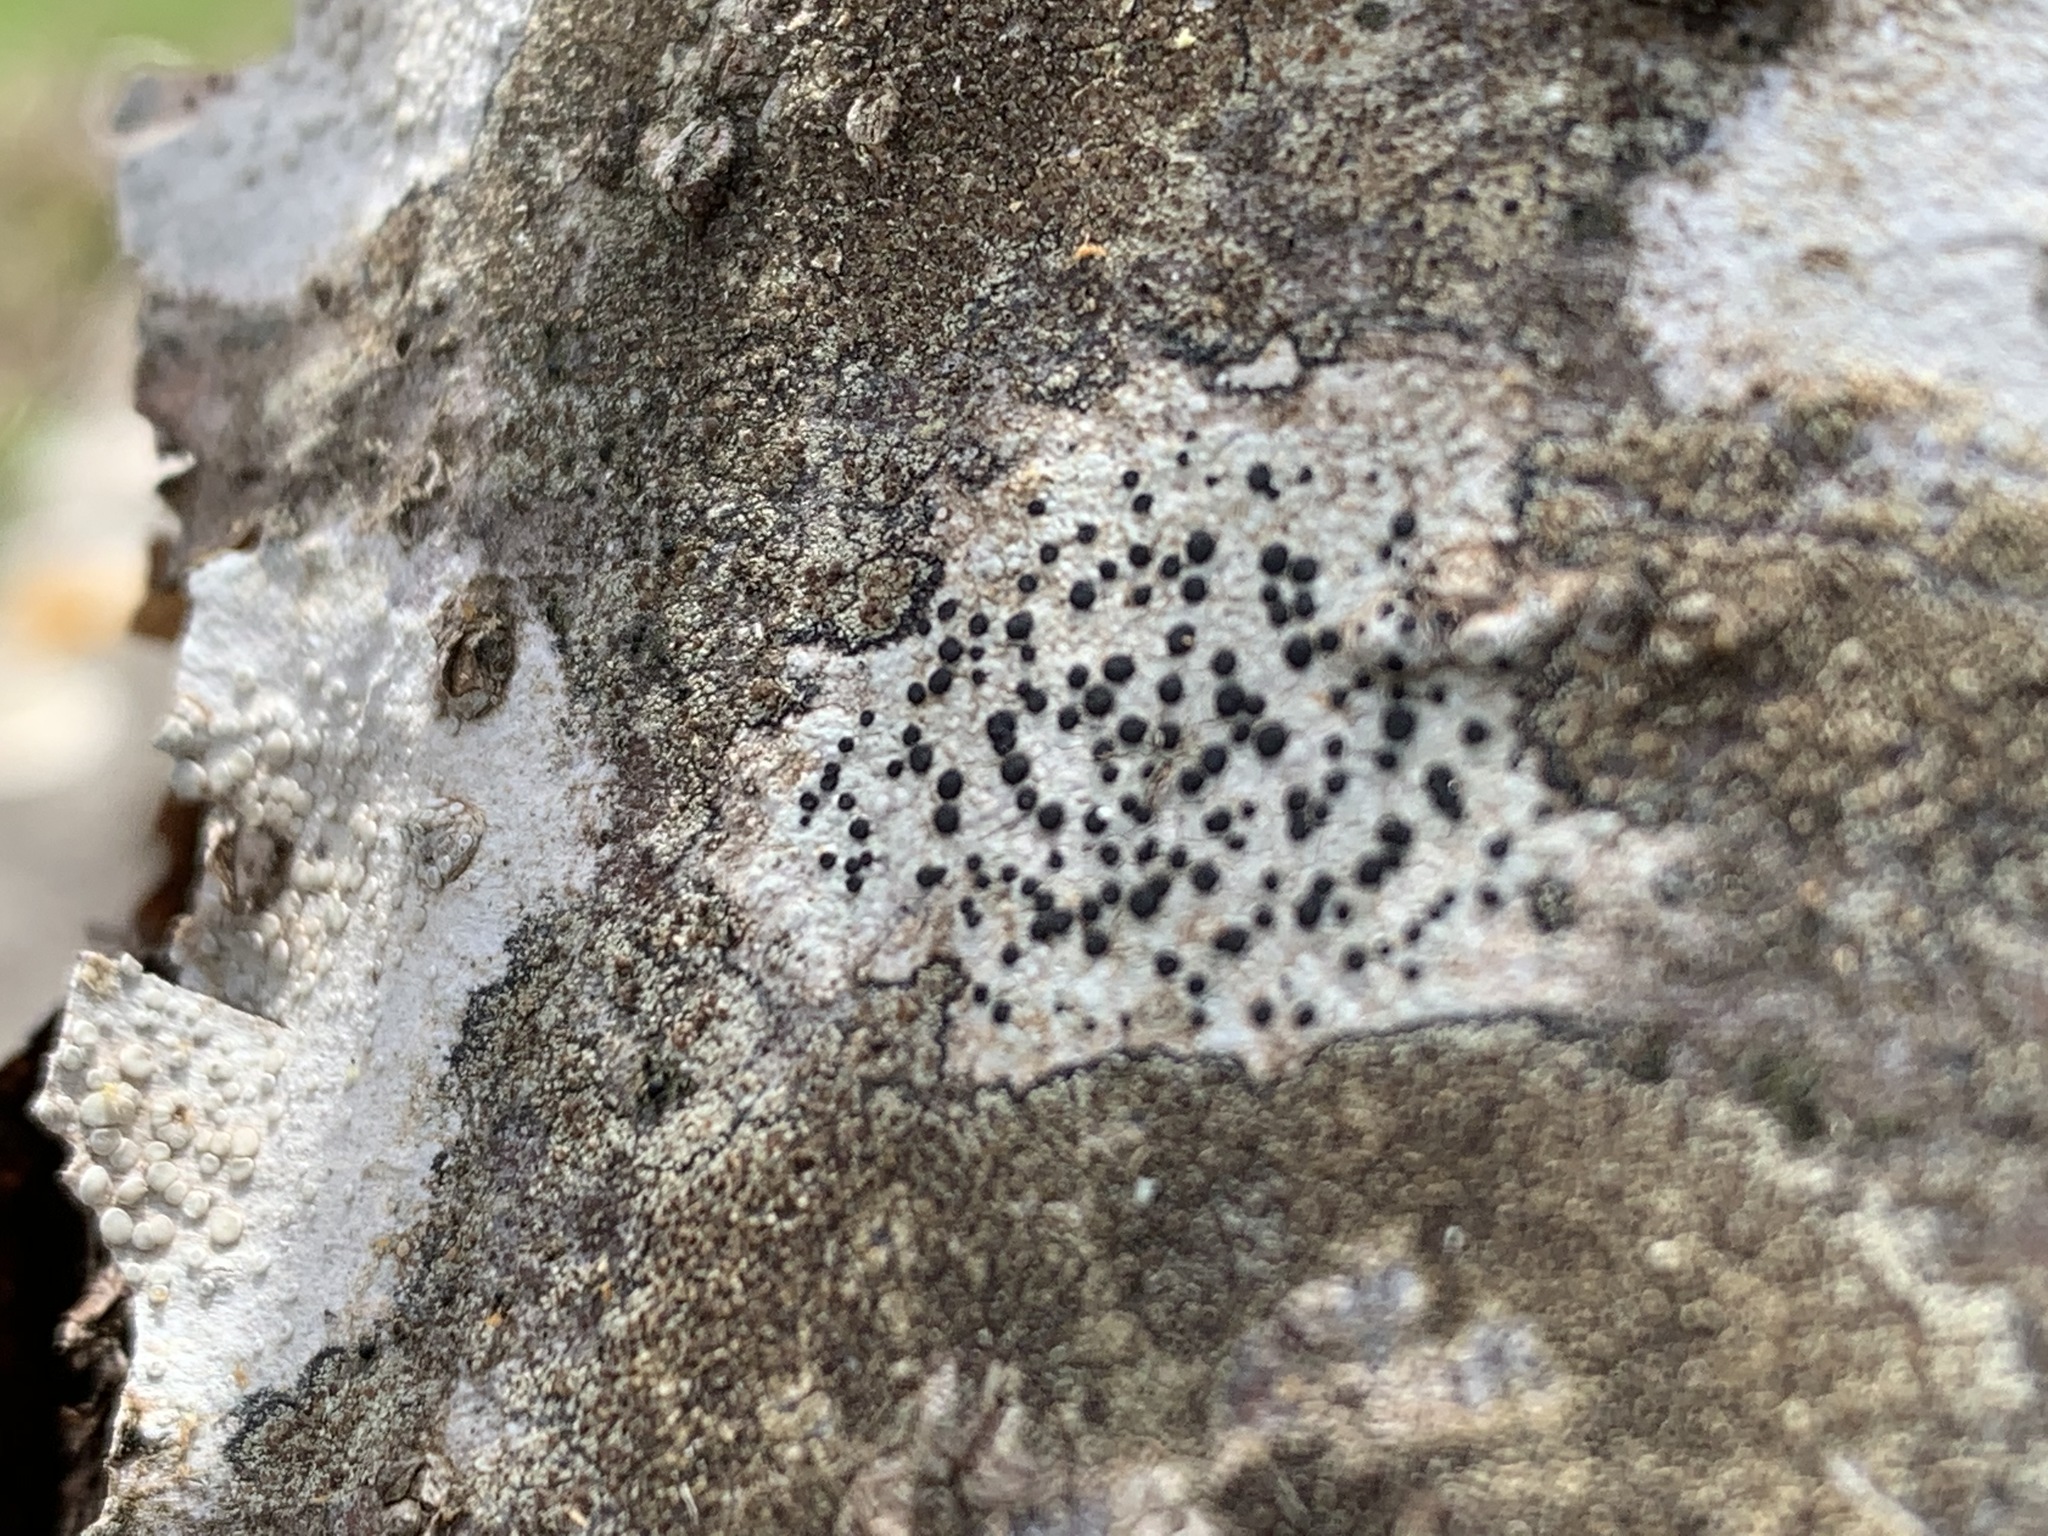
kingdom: Fungi
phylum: Ascomycota
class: Lecanoromycetes
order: Lecideales
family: Lecideaceae
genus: Porpidia
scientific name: Porpidia crustulata
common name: Concentric boulder lichen
